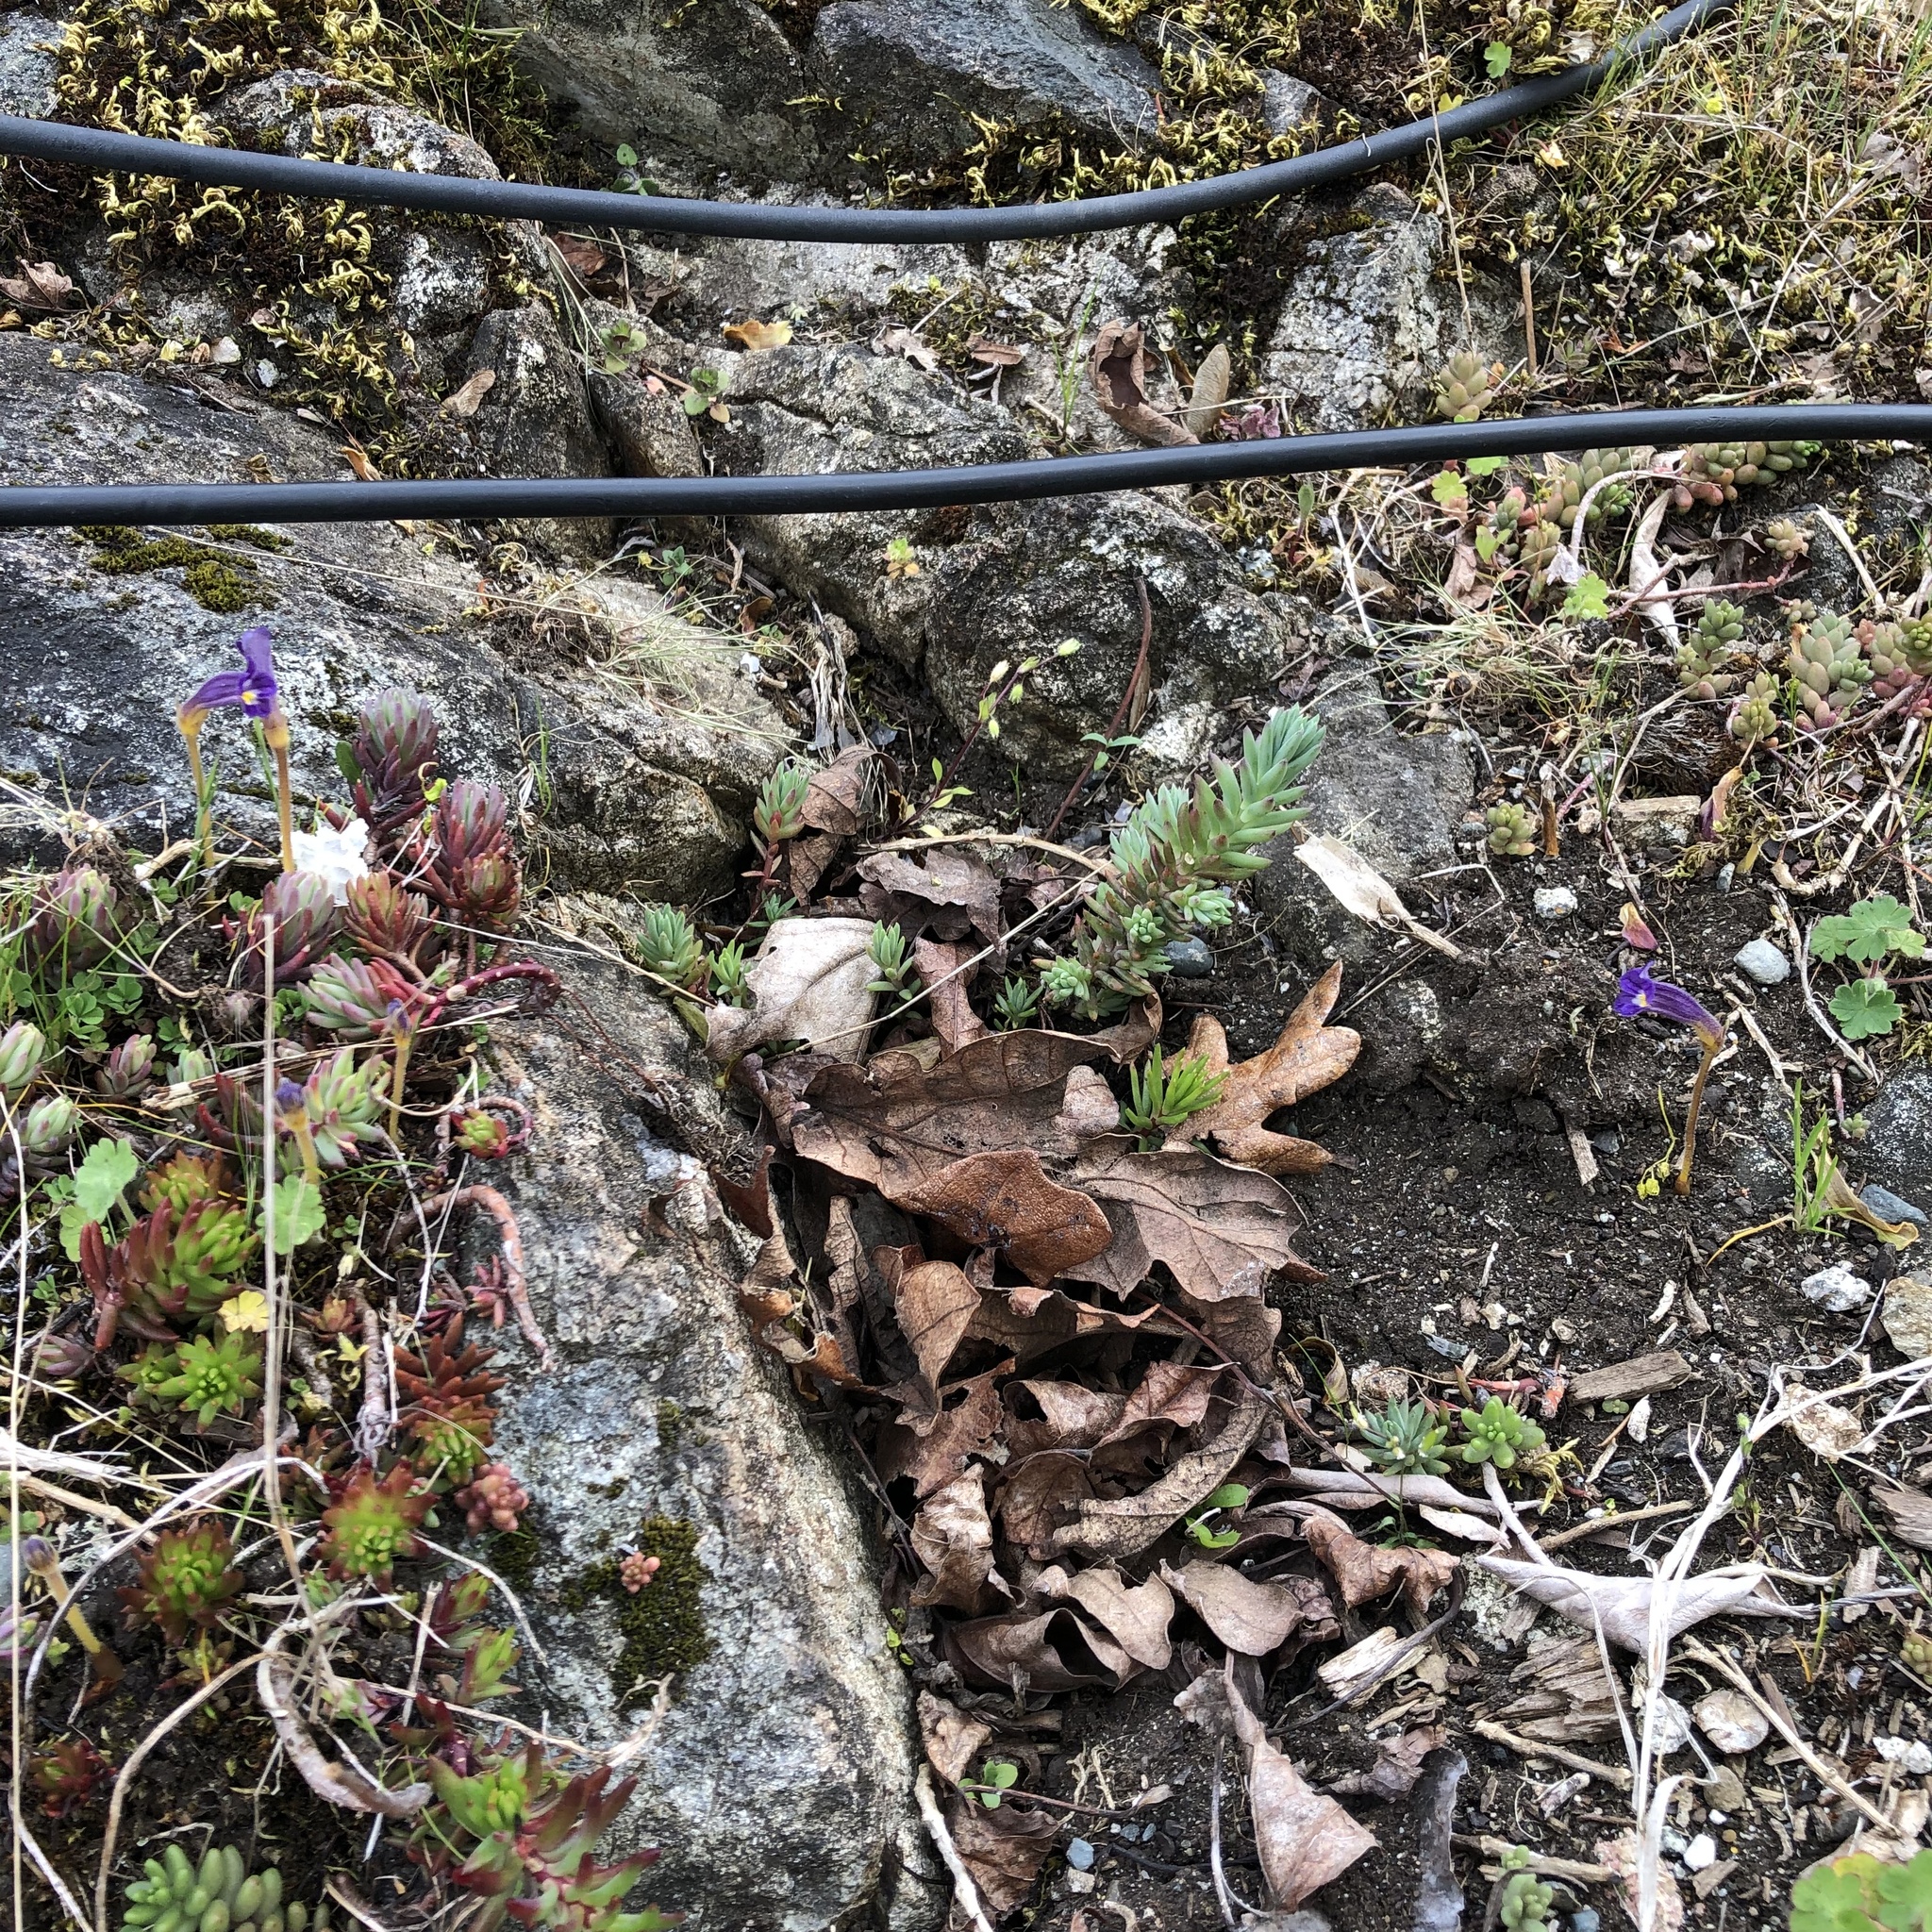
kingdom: Plantae
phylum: Tracheophyta
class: Magnoliopsida
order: Lamiales
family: Orobanchaceae
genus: Aphyllon
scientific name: Aphyllon uniflorum
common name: One-flowered broomrape
